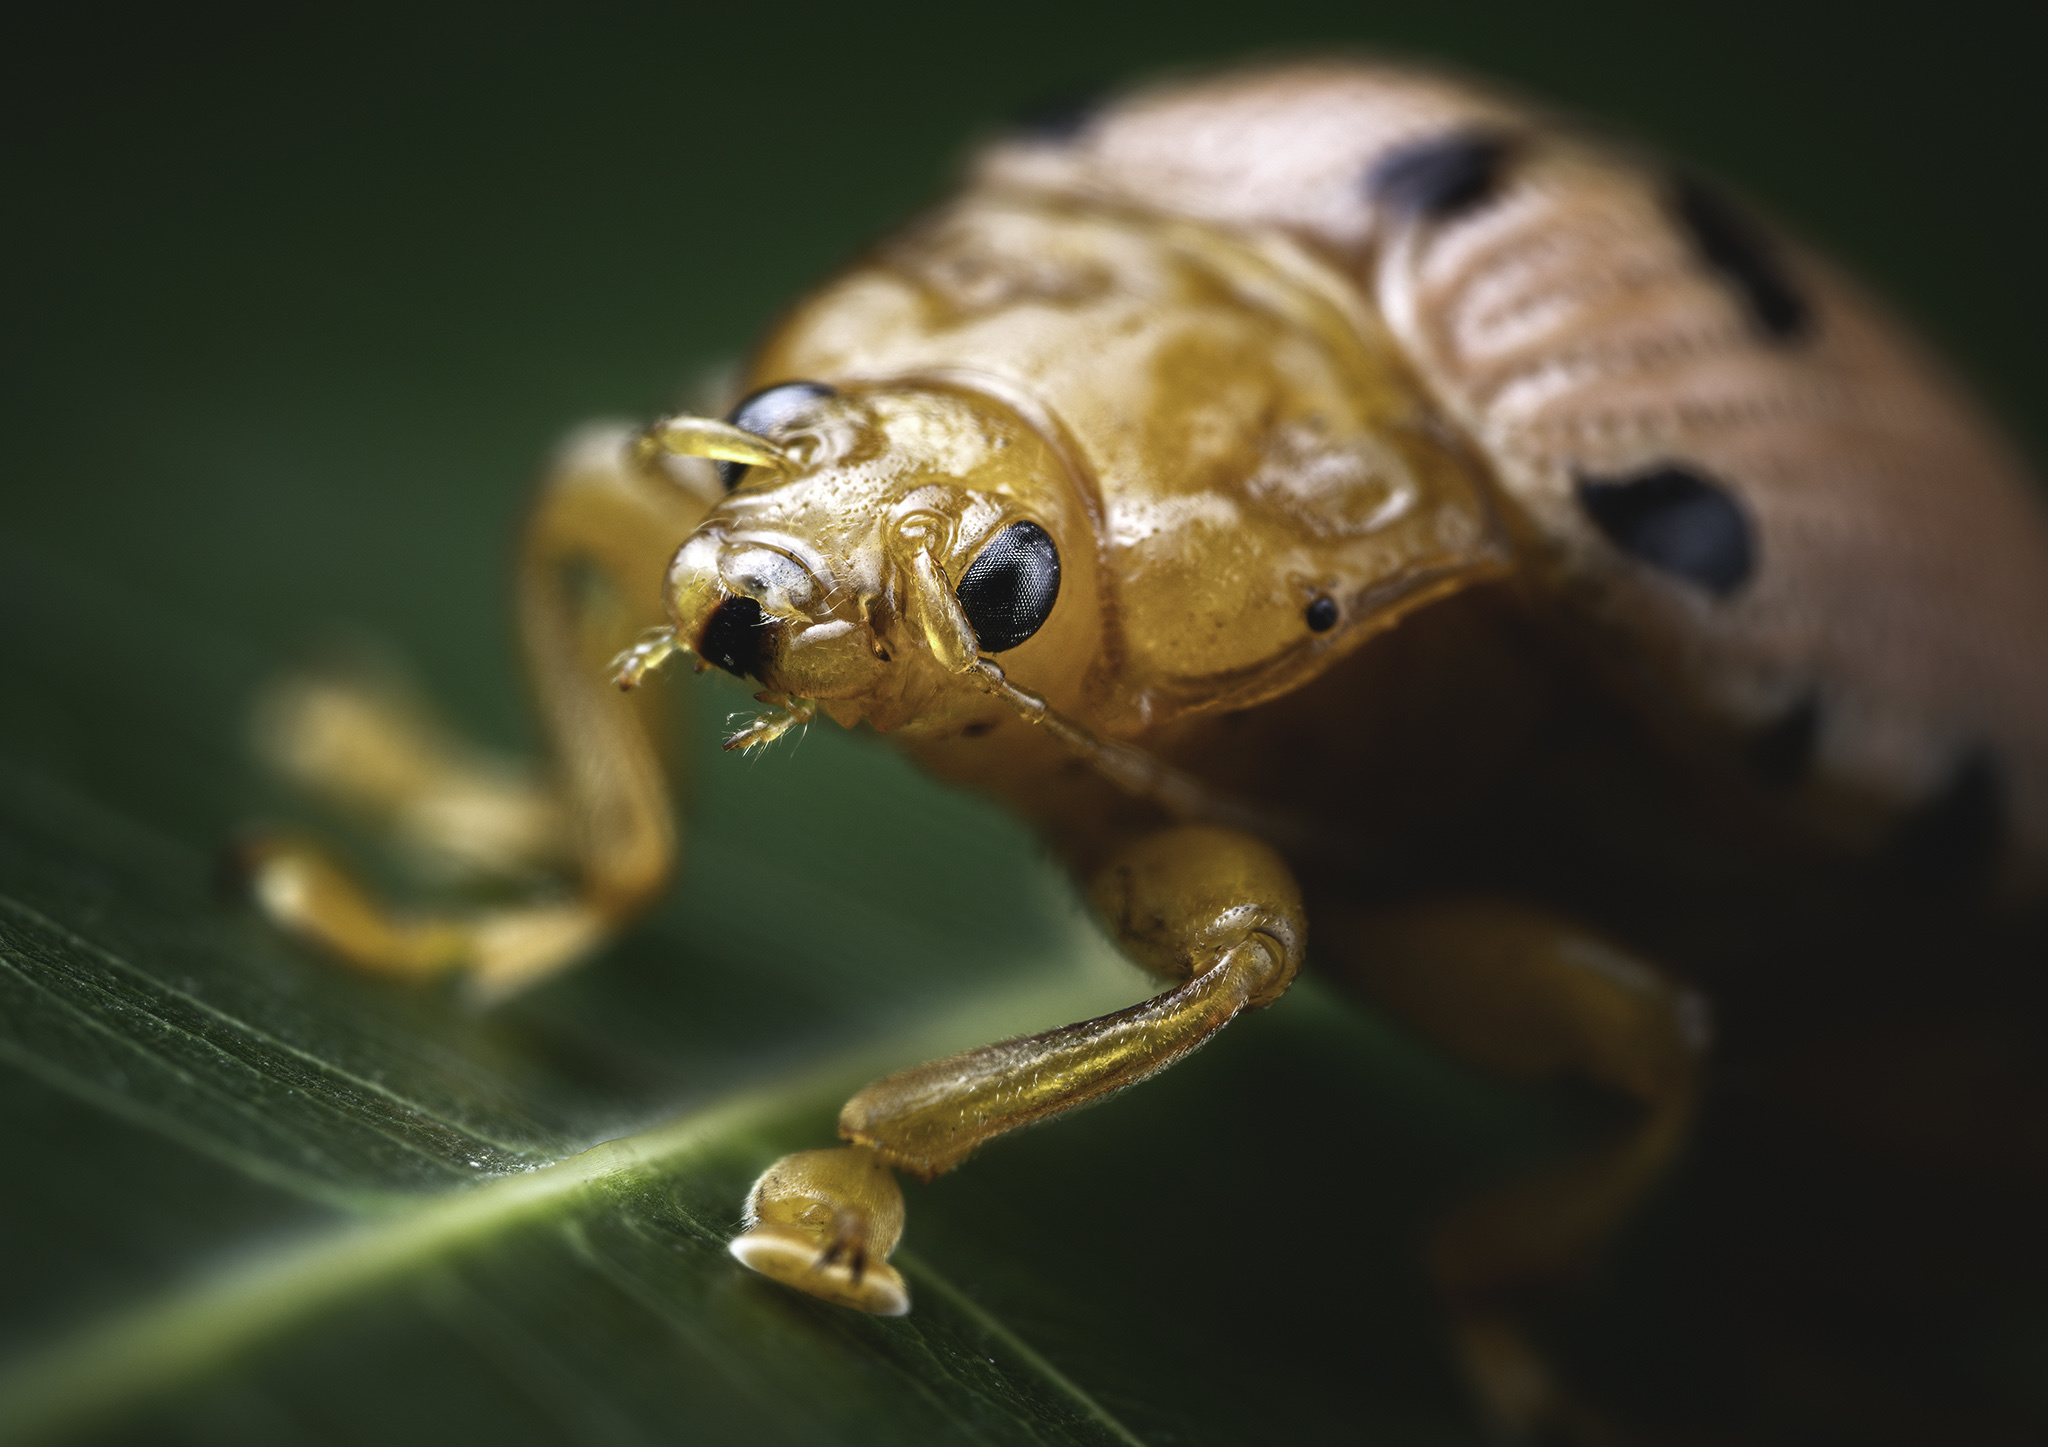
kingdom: Animalia
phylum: Arthropoda
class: Insecta
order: Coleoptera
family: Chrysomelidae
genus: Podontia
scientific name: Podontia
